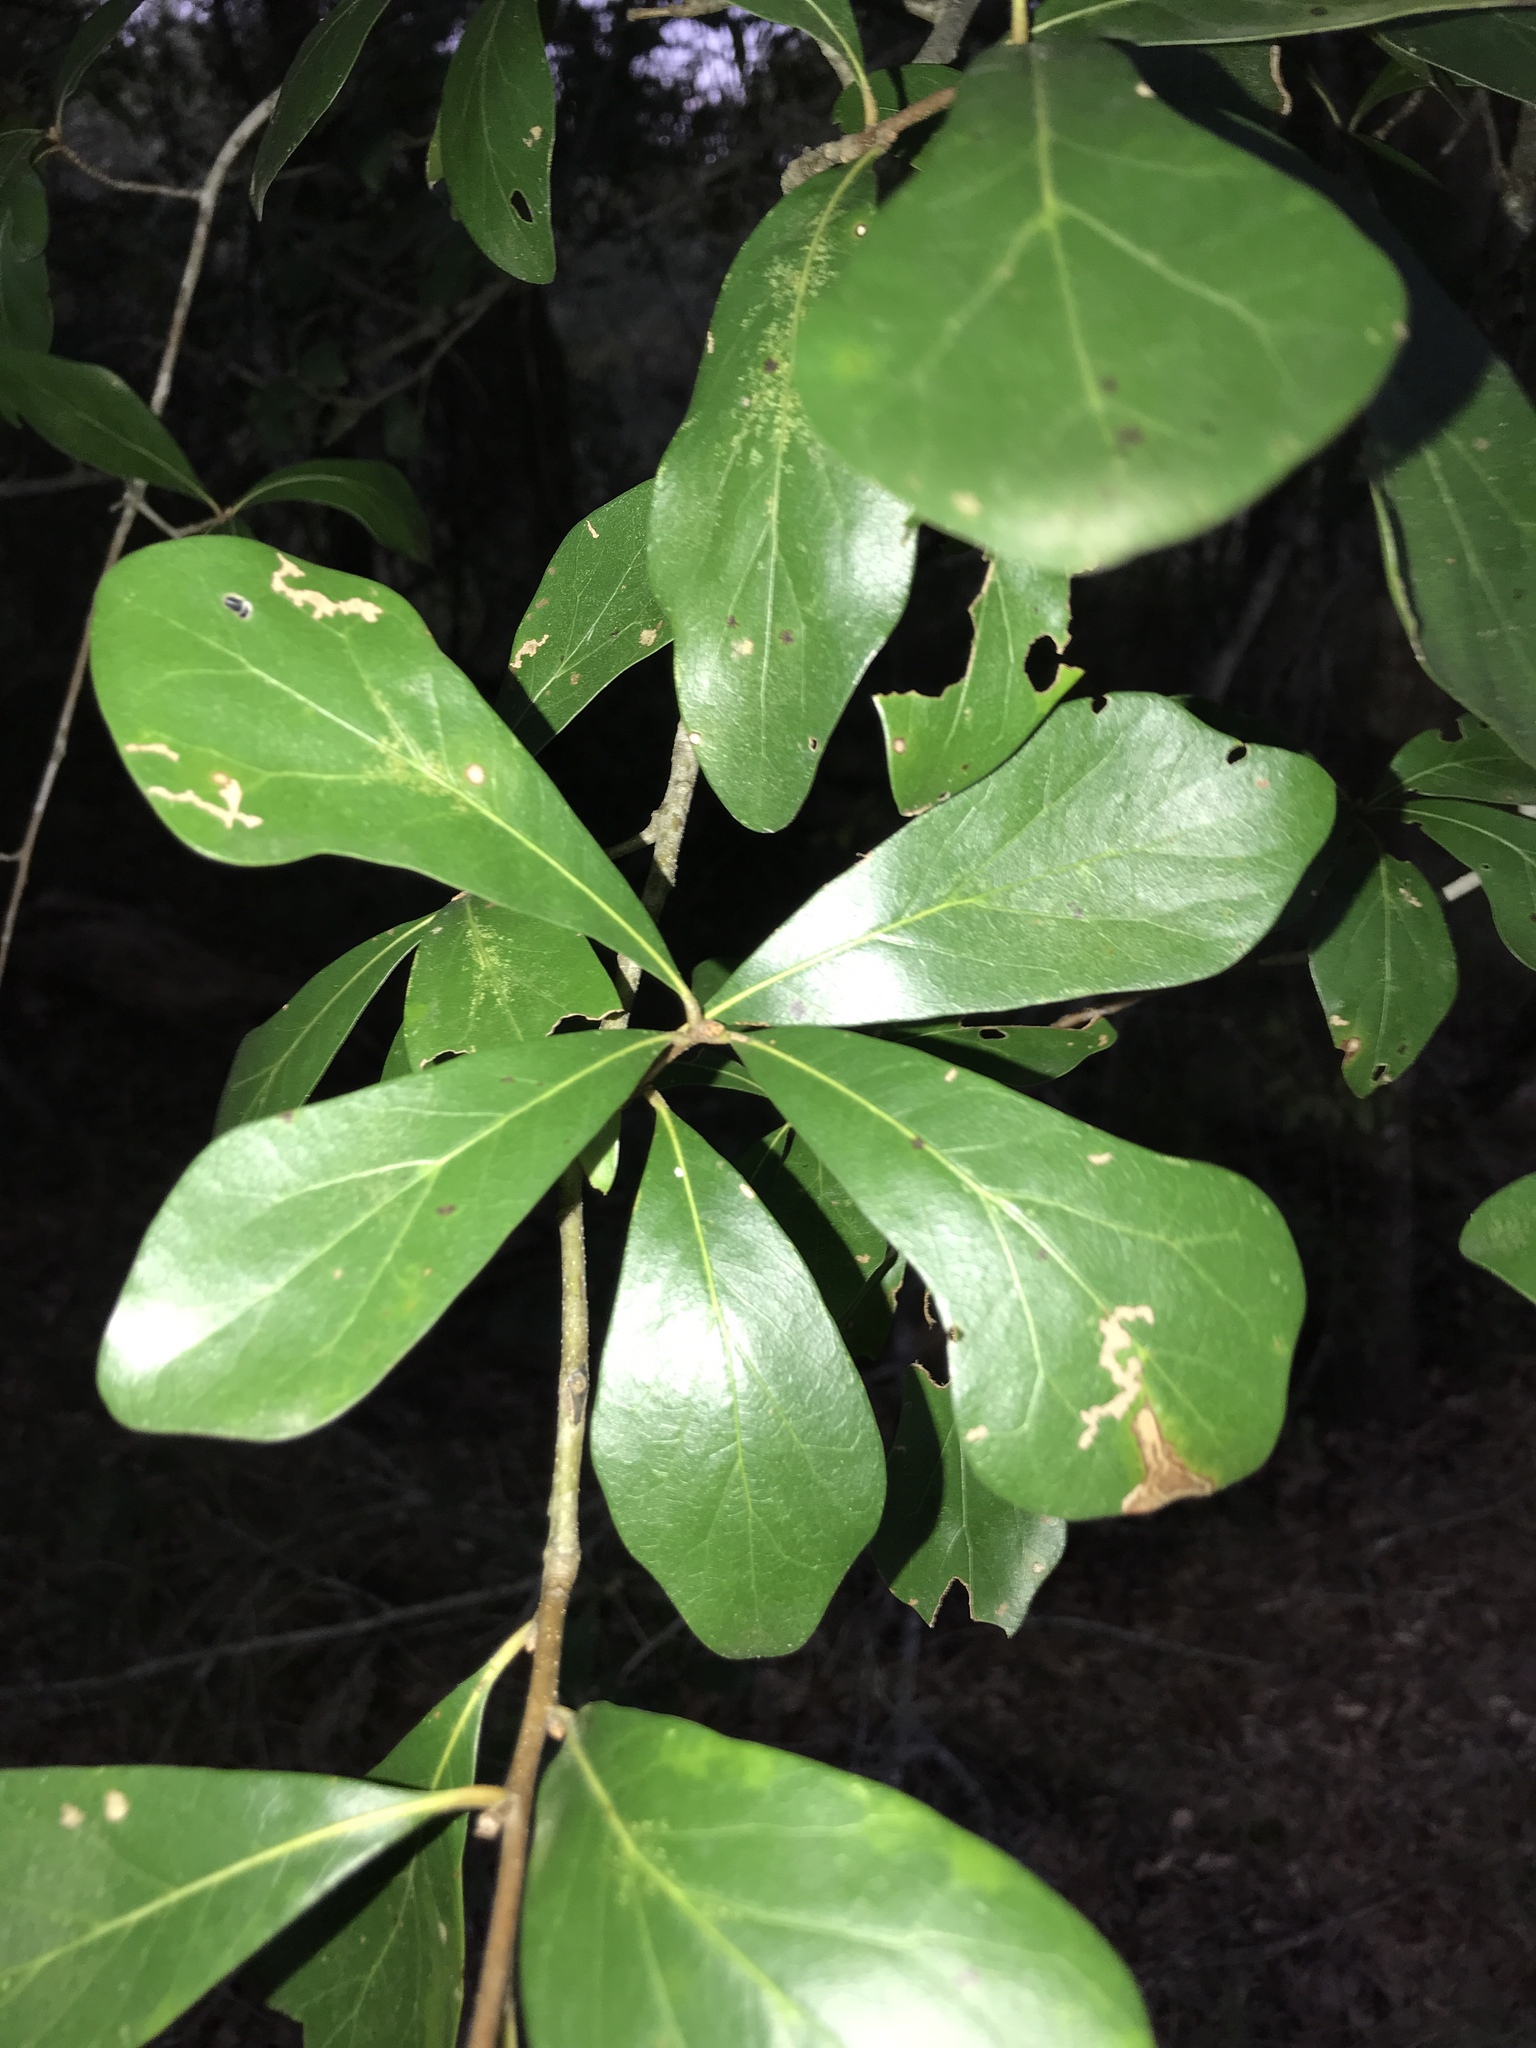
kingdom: Plantae
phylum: Tracheophyta
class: Magnoliopsida
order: Fagales
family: Fagaceae
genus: Quercus
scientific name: Quercus nigra
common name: Water oak
